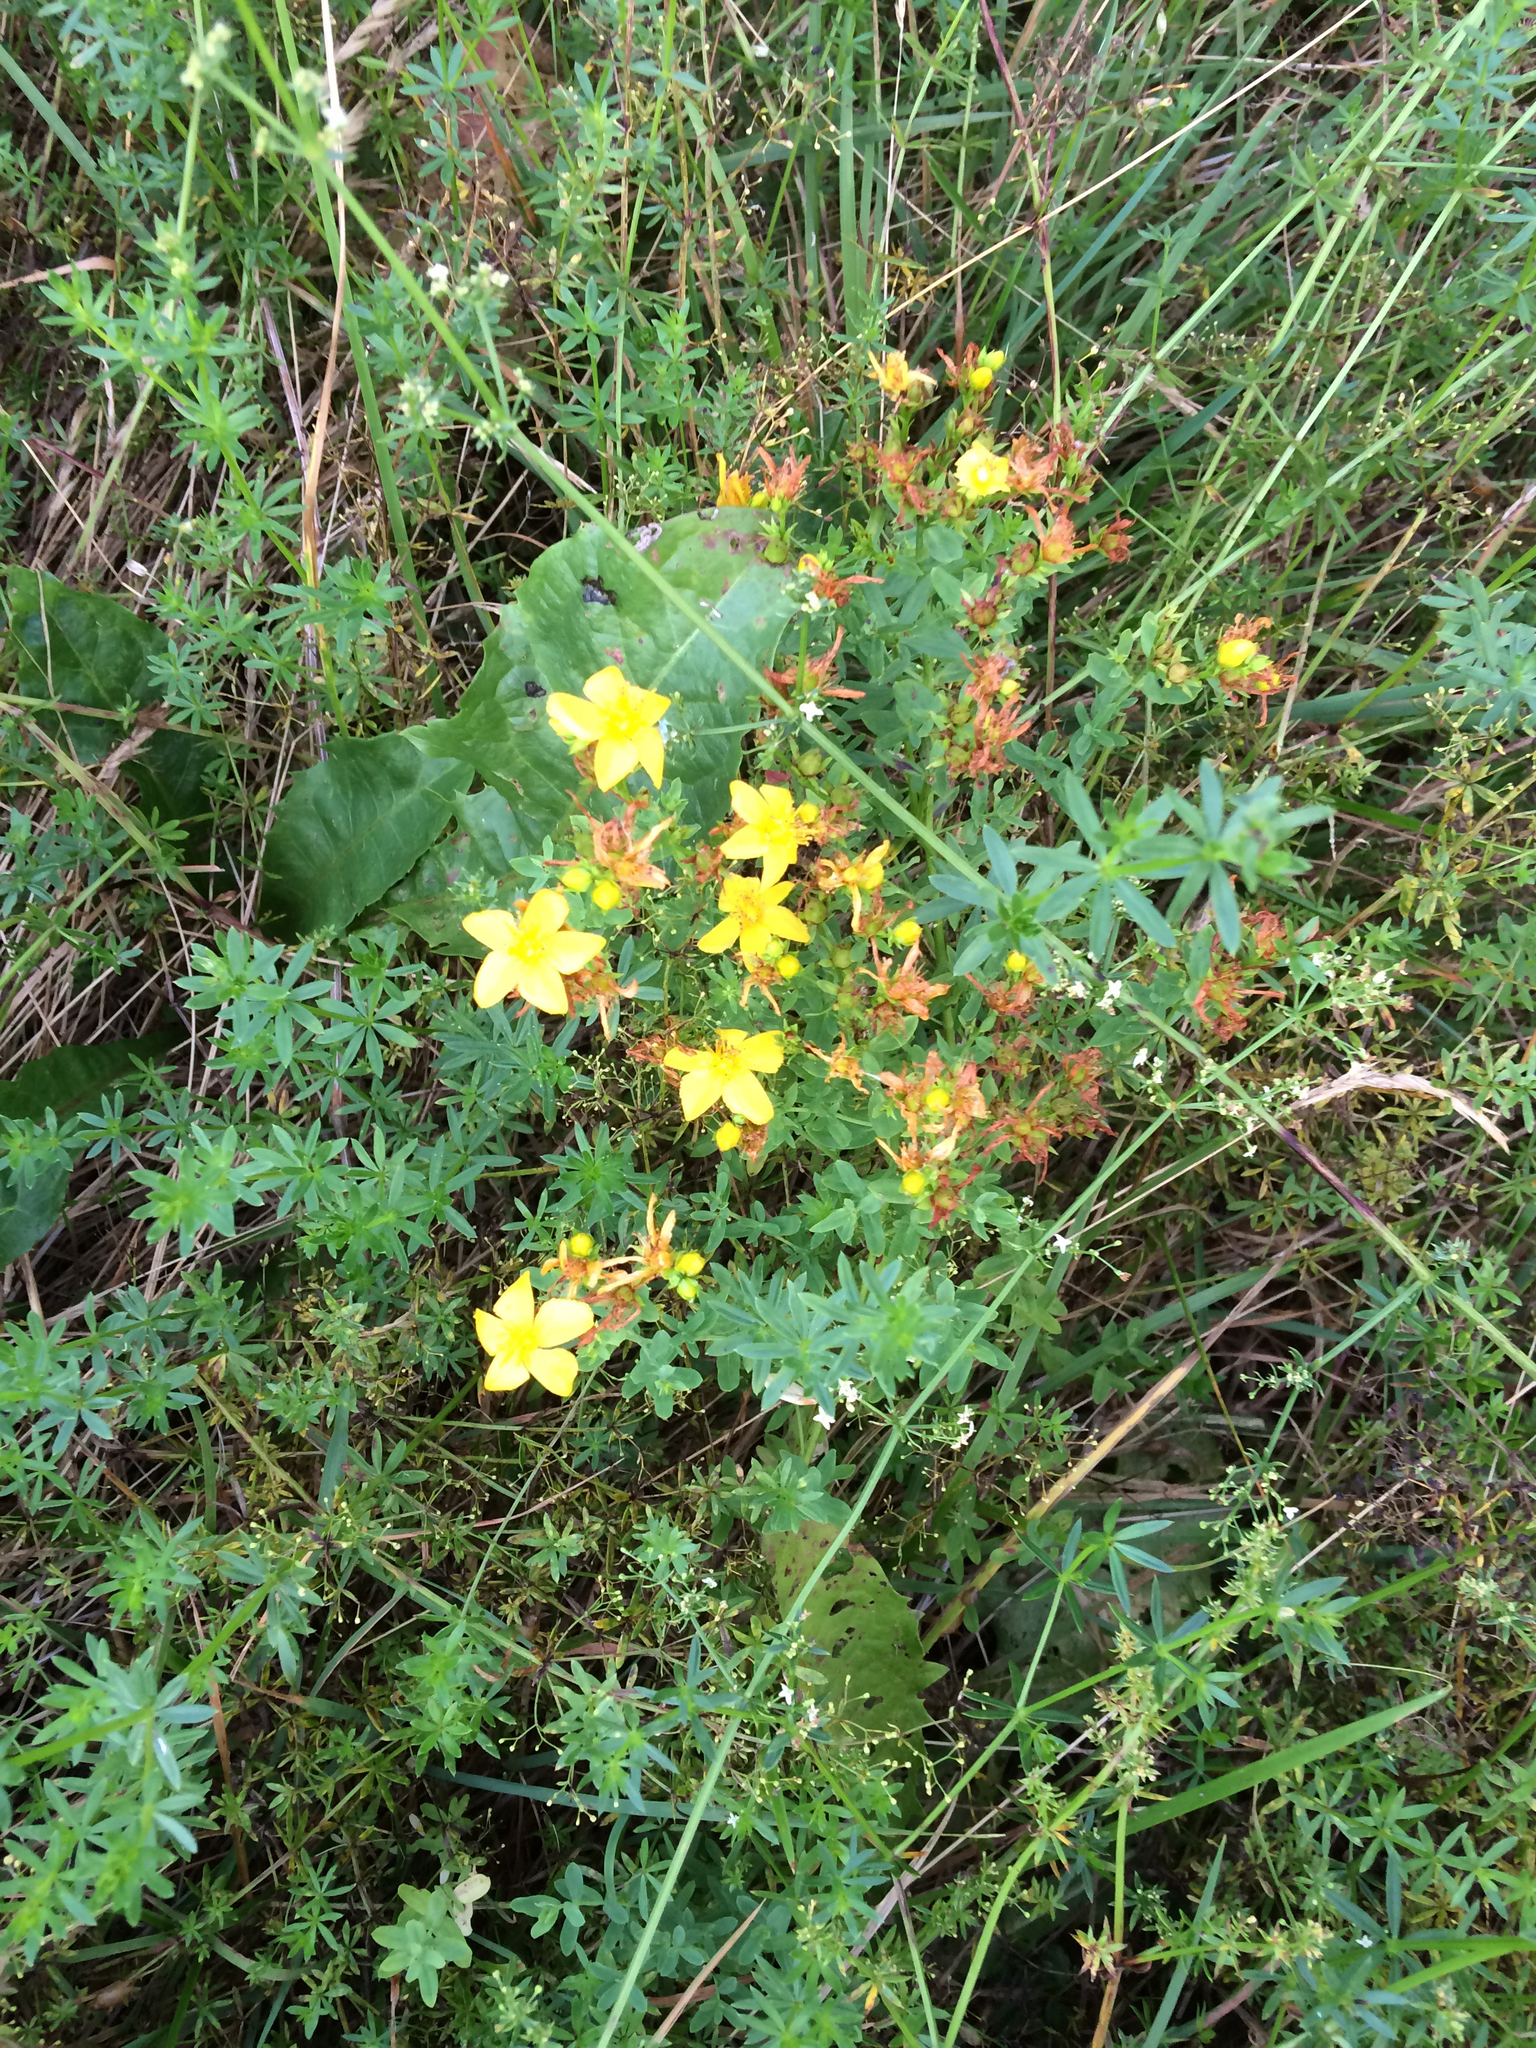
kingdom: Plantae
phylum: Tracheophyta
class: Magnoliopsida
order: Malpighiales
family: Hypericaceae
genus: Hypericum
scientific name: Hypericum perforatum
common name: Common st. johnswort
